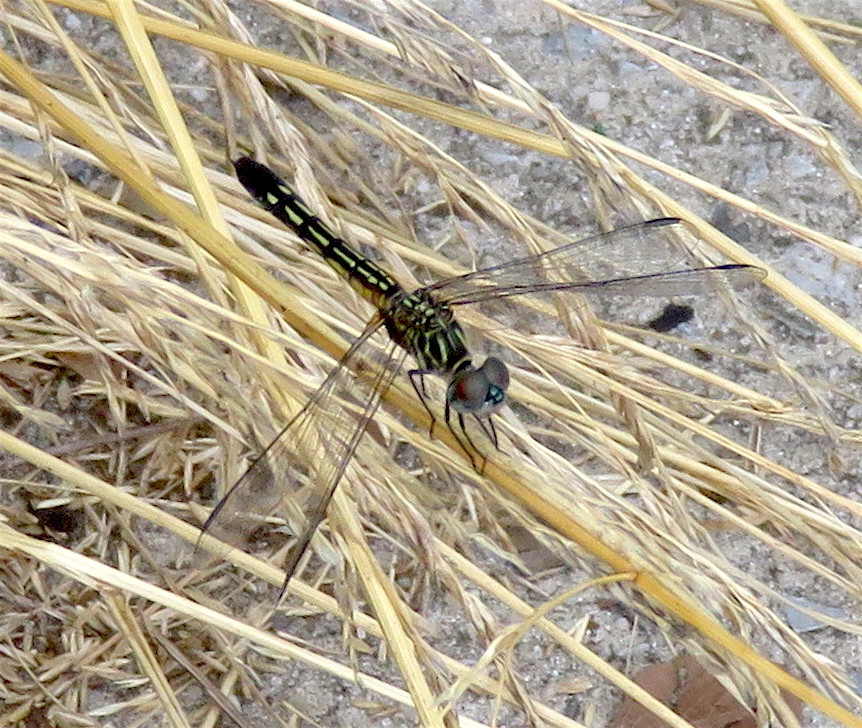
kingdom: Animalia
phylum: Arthropoda
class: Insecta
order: Odonata
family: Libellulidae
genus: Pachydiplax
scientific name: Pachydiplax longipennis
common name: Blue dasher
